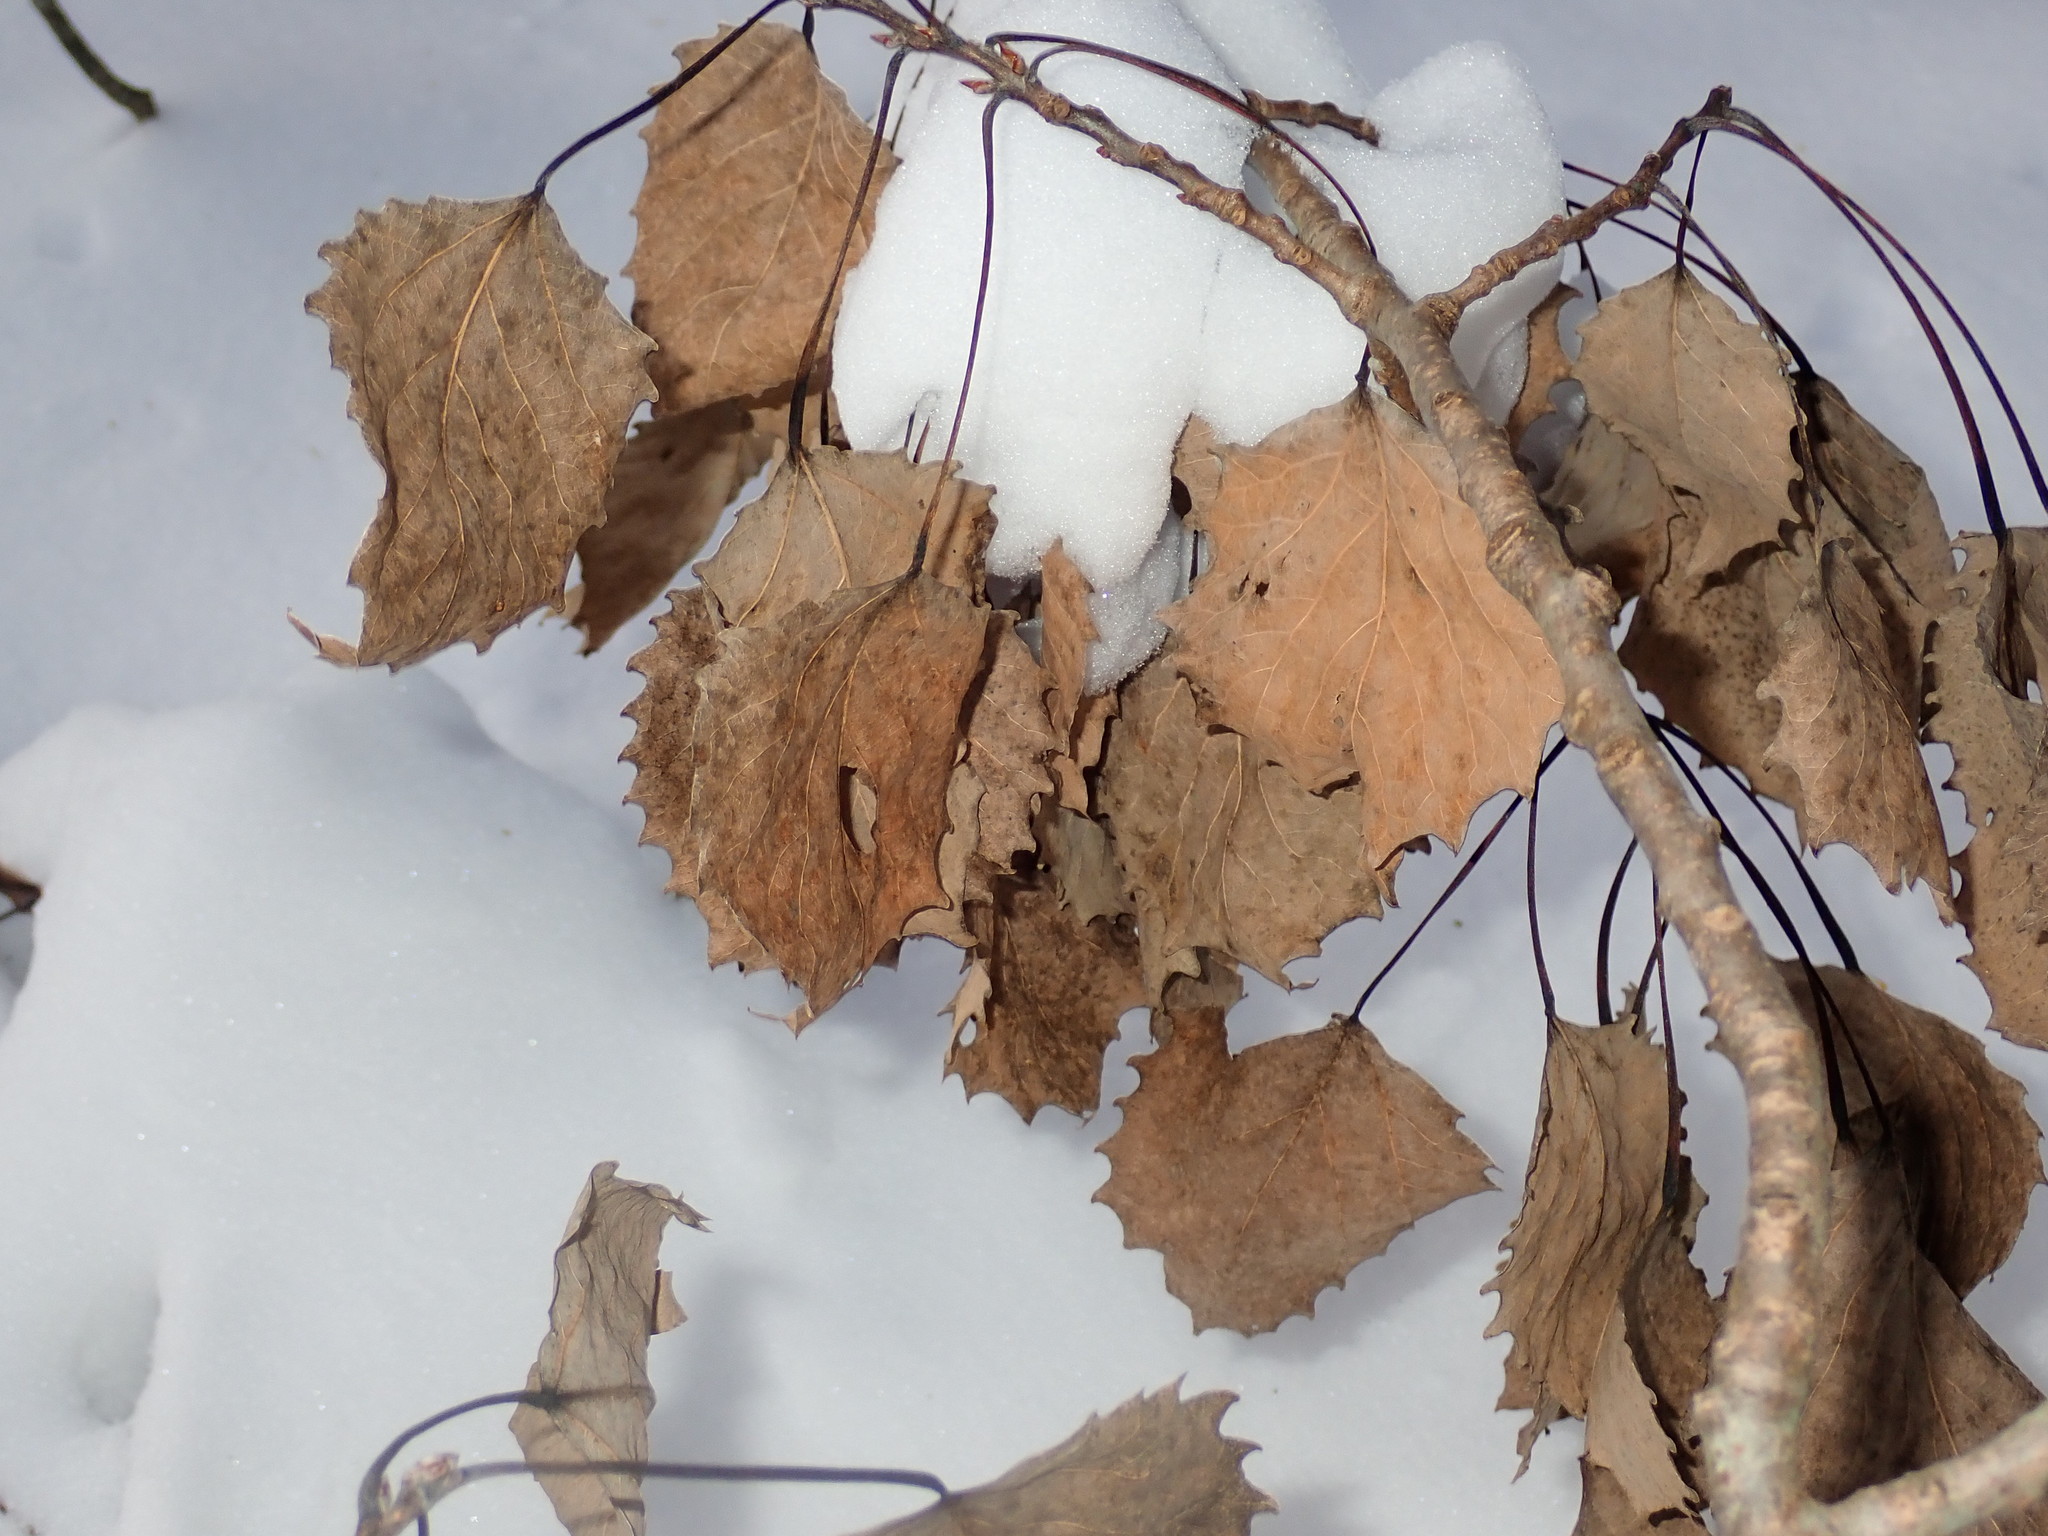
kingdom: Plantae
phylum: Tracheophyta
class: Magnoliopsida
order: Malpighiales
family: Salicaceae
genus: Populus
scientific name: Populus grandidentata
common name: Bigtooth aspen
